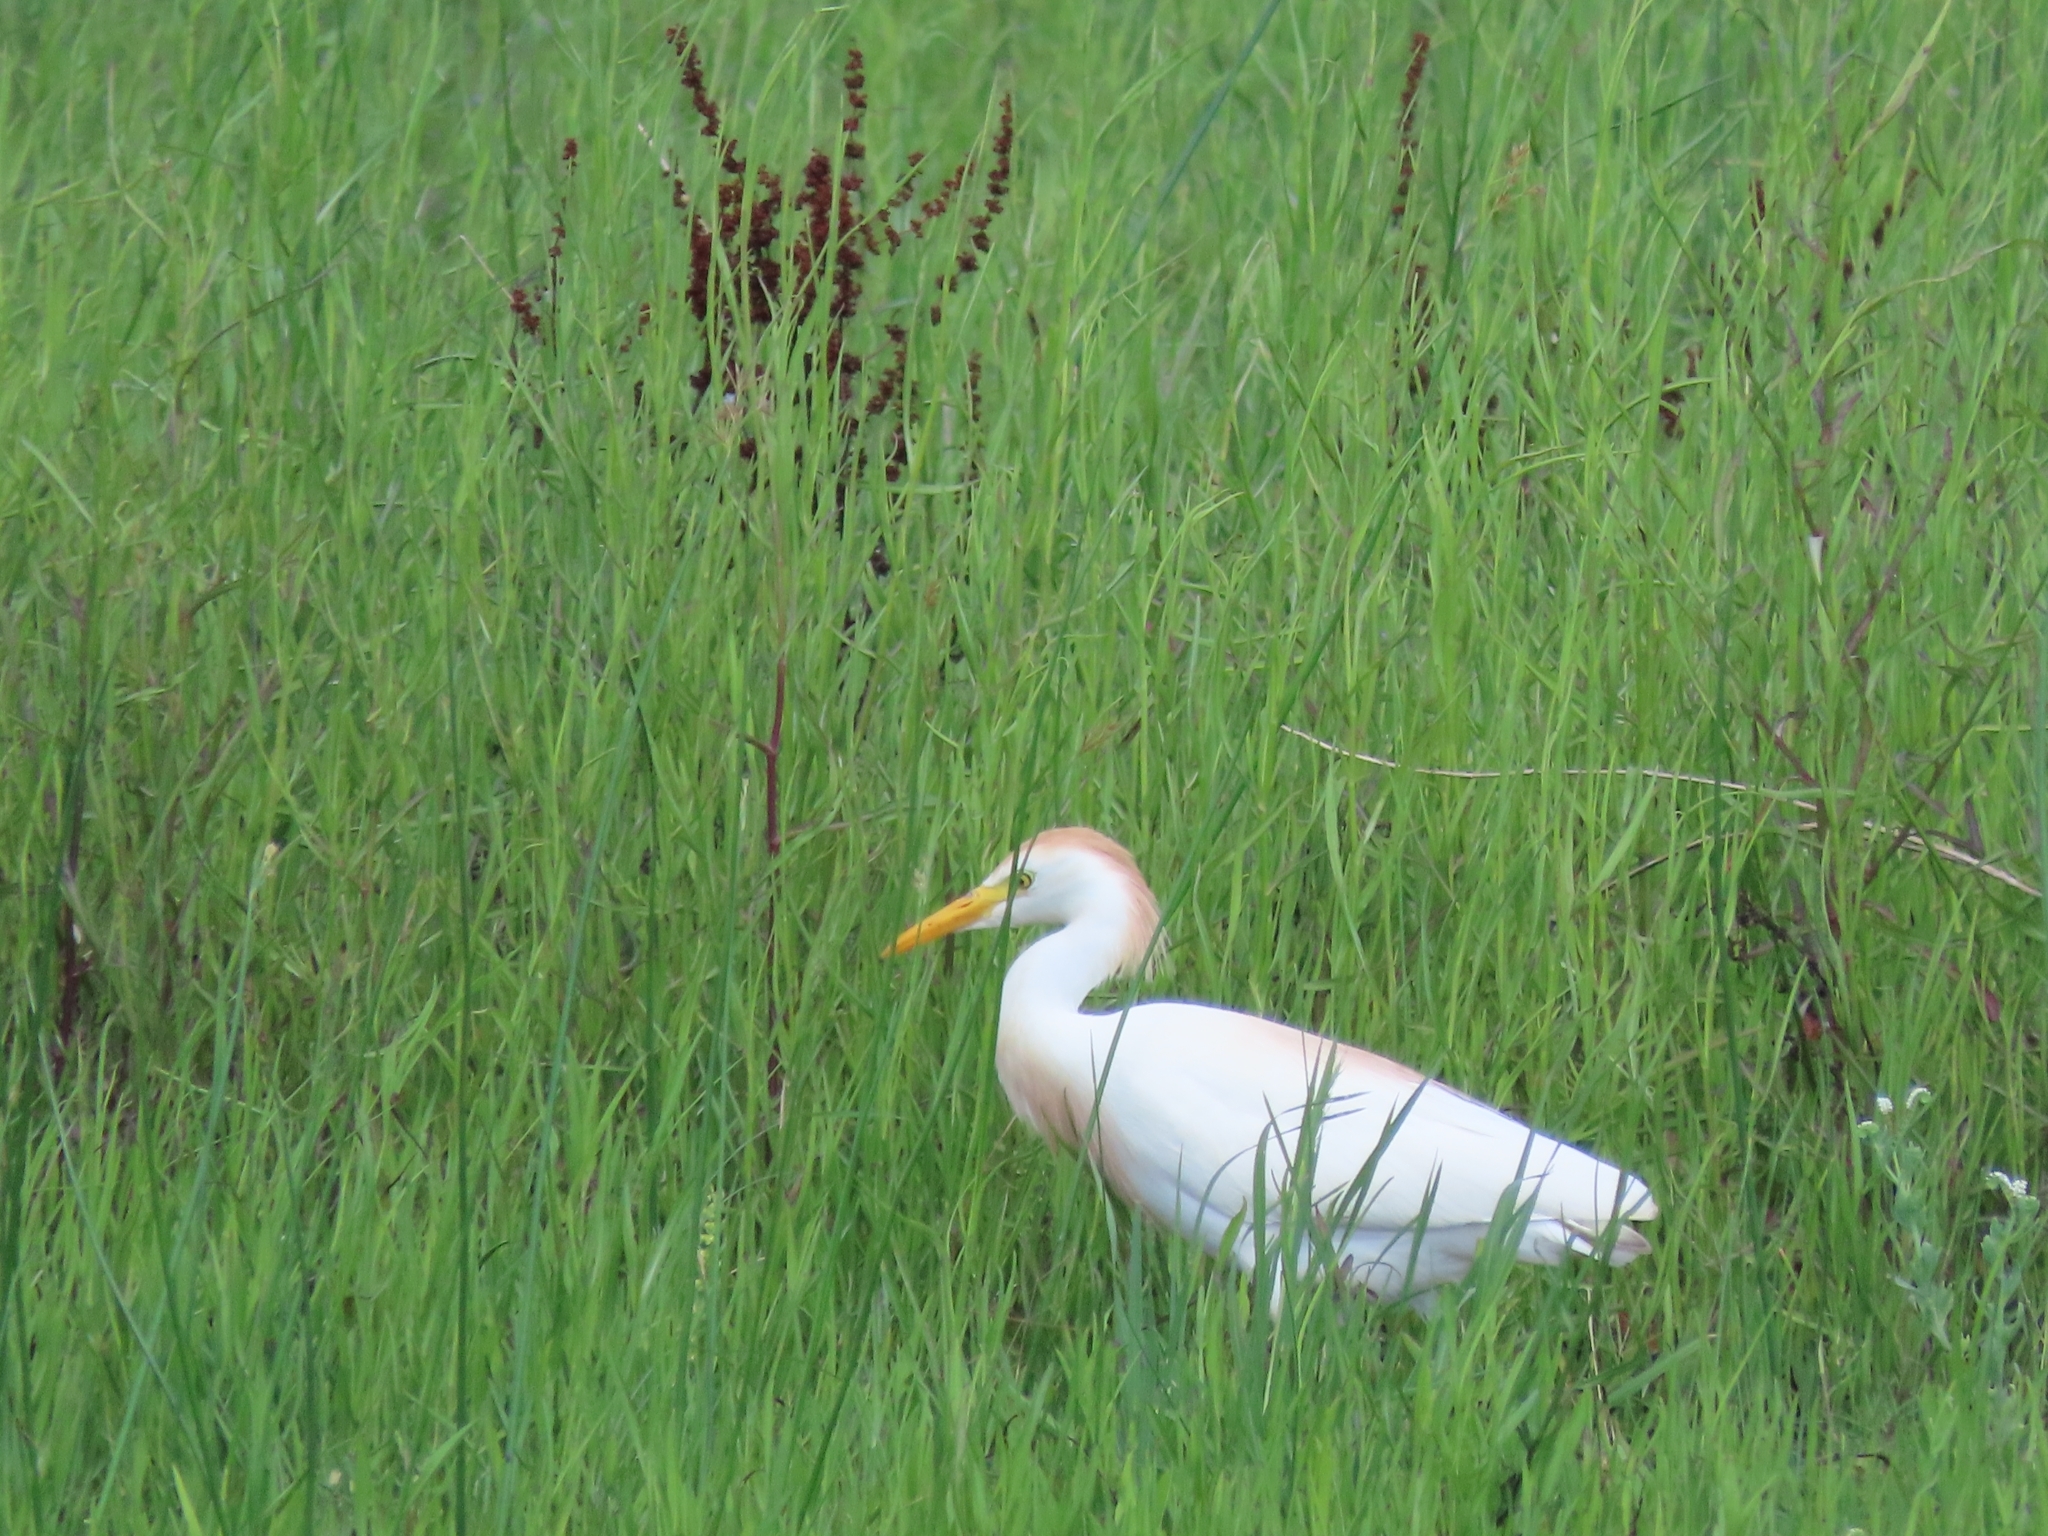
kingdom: Animalia
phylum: Chordata
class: Aves
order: Pelecaniformes
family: Ardeidae
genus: Bubulcus
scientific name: Bubulcus ibis
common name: Cattle egret
